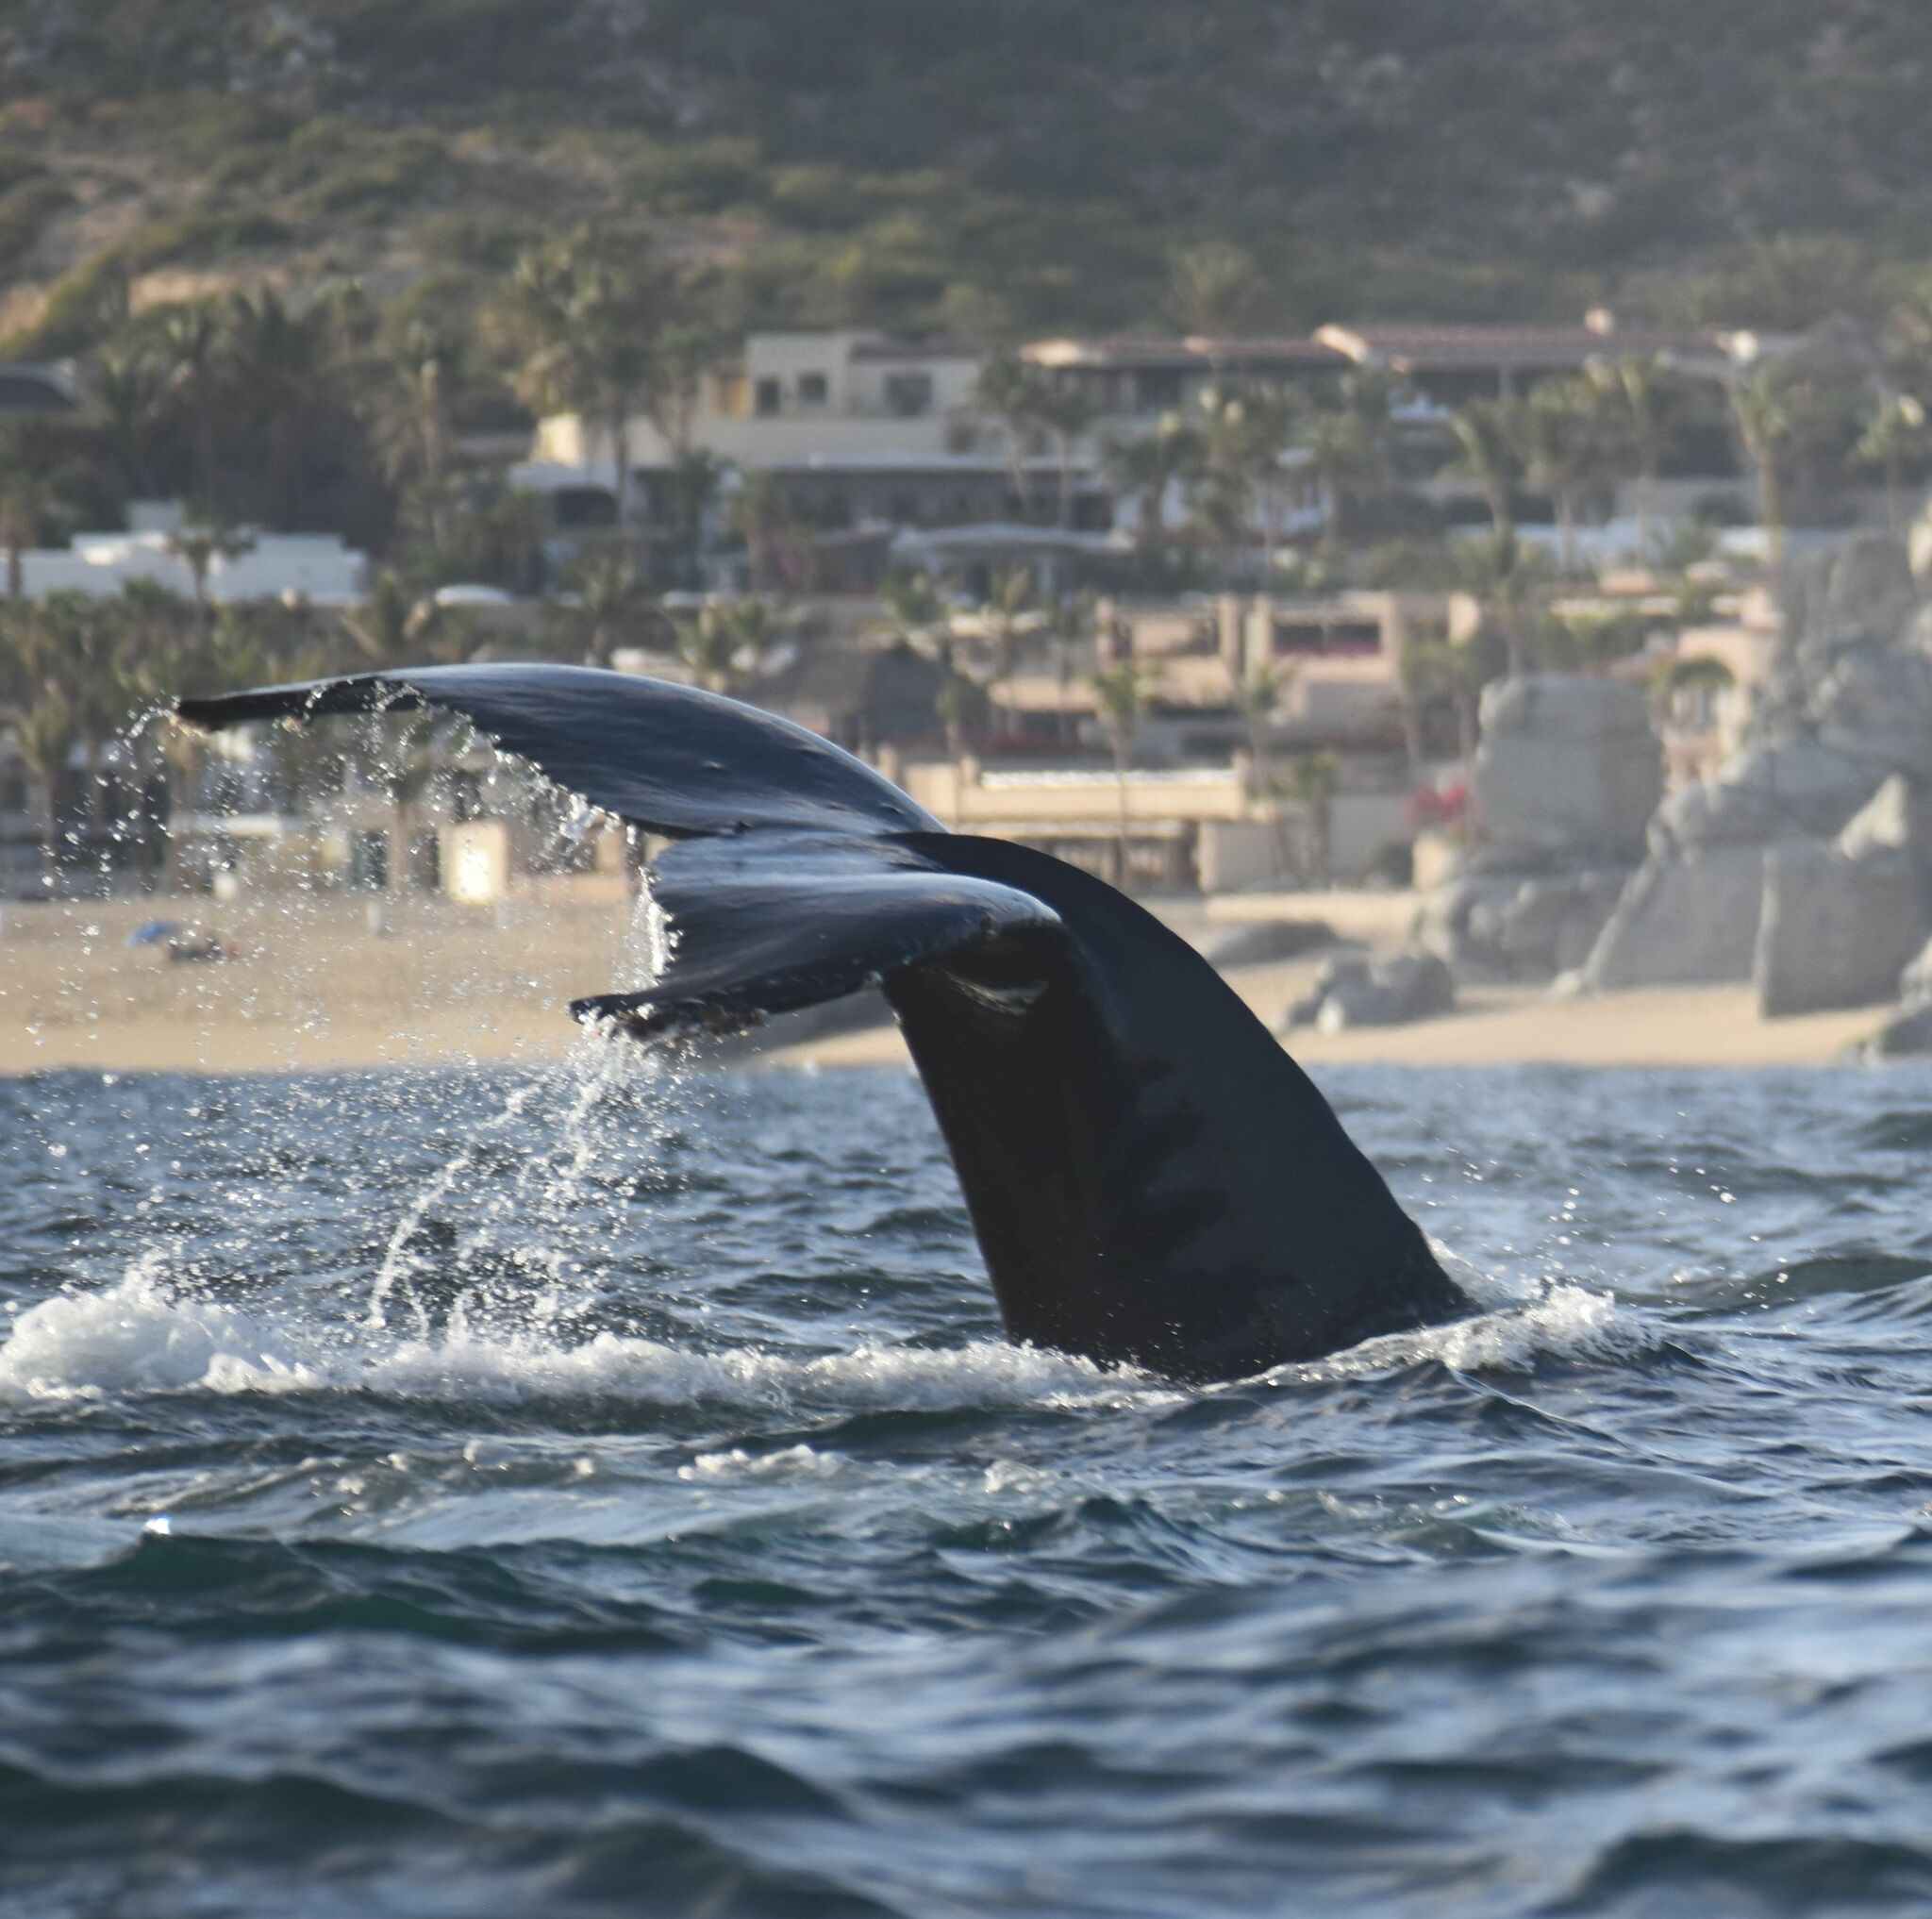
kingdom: Animalia
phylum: Chordata
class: Mammalia
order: Cetacea
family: Balaenopteridae
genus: Megaptera
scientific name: Megaptera novaeangliae
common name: Humpback whale
